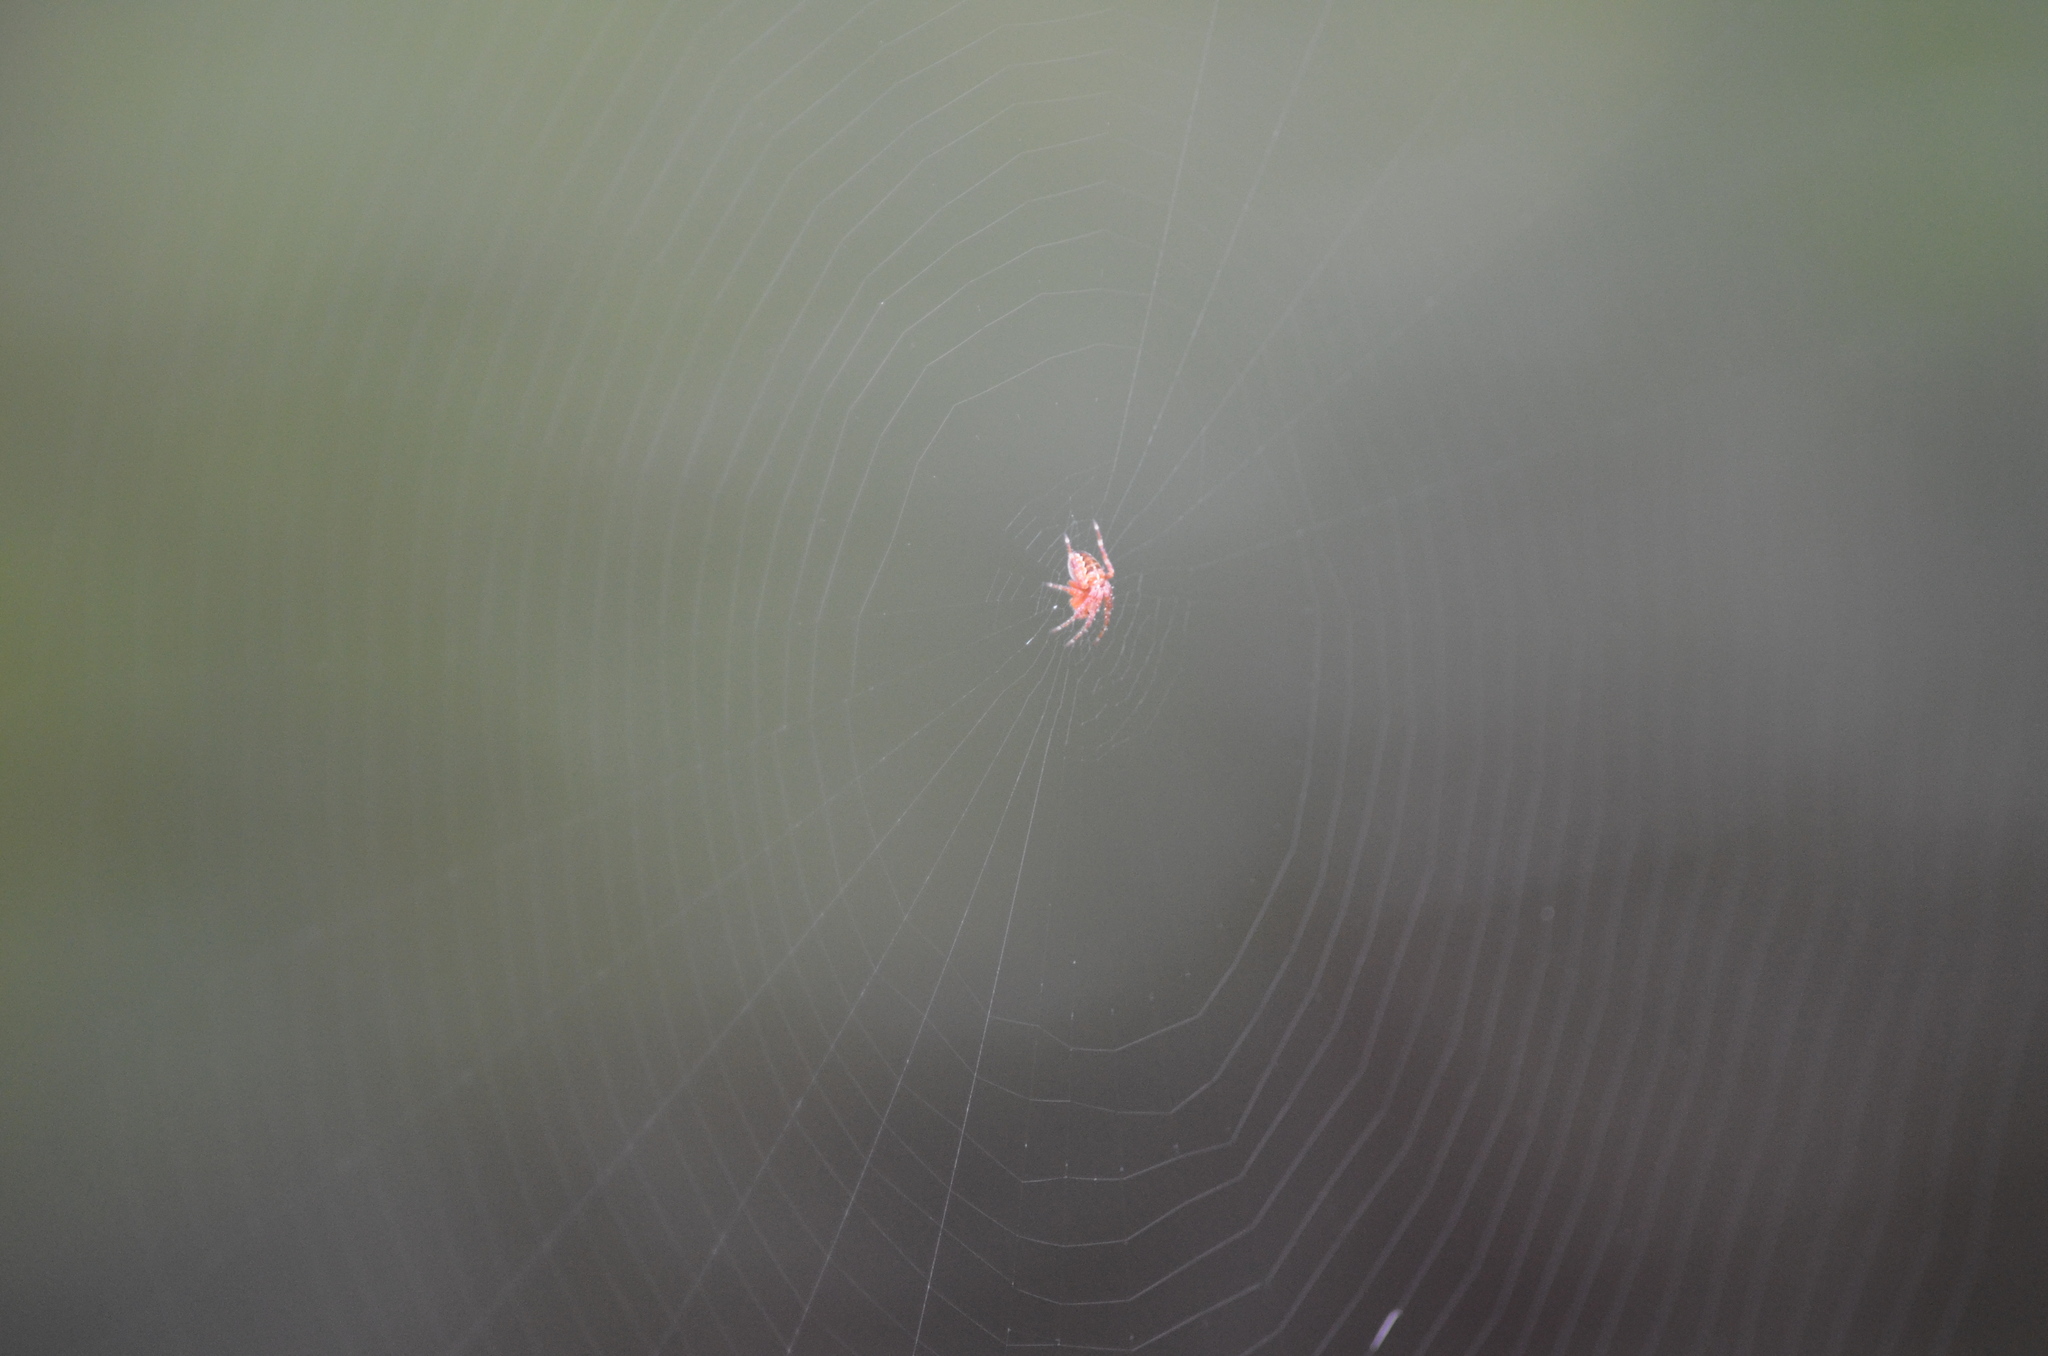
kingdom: Animalia
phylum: Arthropoda
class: Arachnida
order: Araneae
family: Araneidae
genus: Araneus
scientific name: Araneus diadematus
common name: Cross orbweaver
